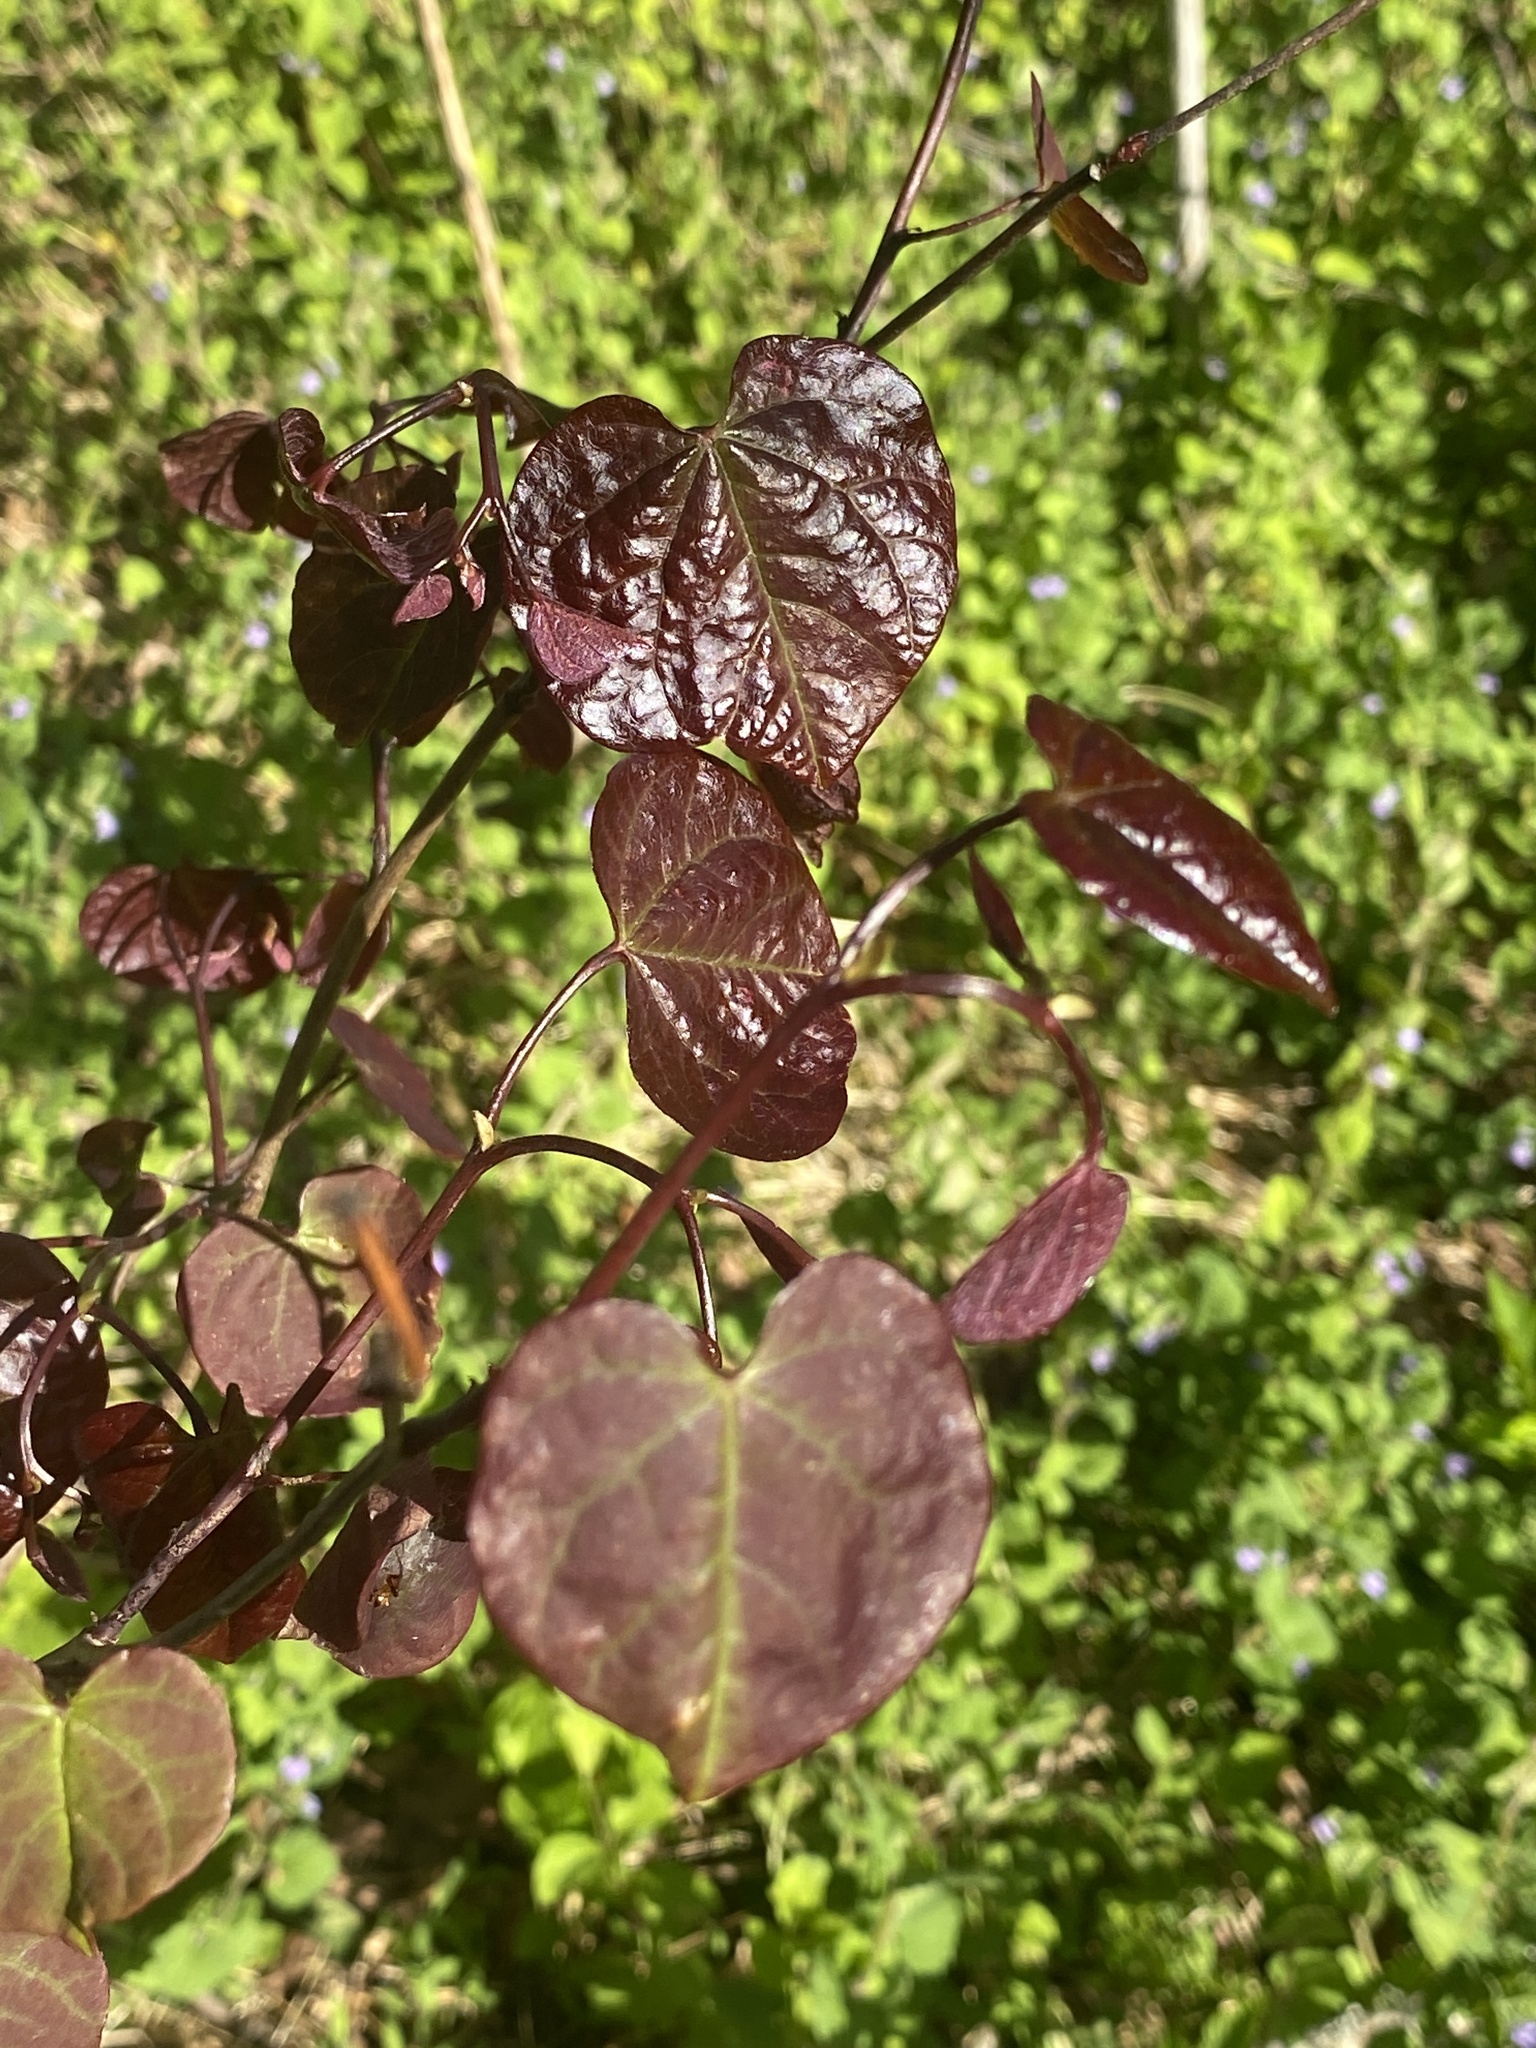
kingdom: Plantae
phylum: Tracheophyta
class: Magnoliopsida
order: Fabales
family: Fabaceae
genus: Cercis
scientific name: Cercis canadensis
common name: Eastern redbud
